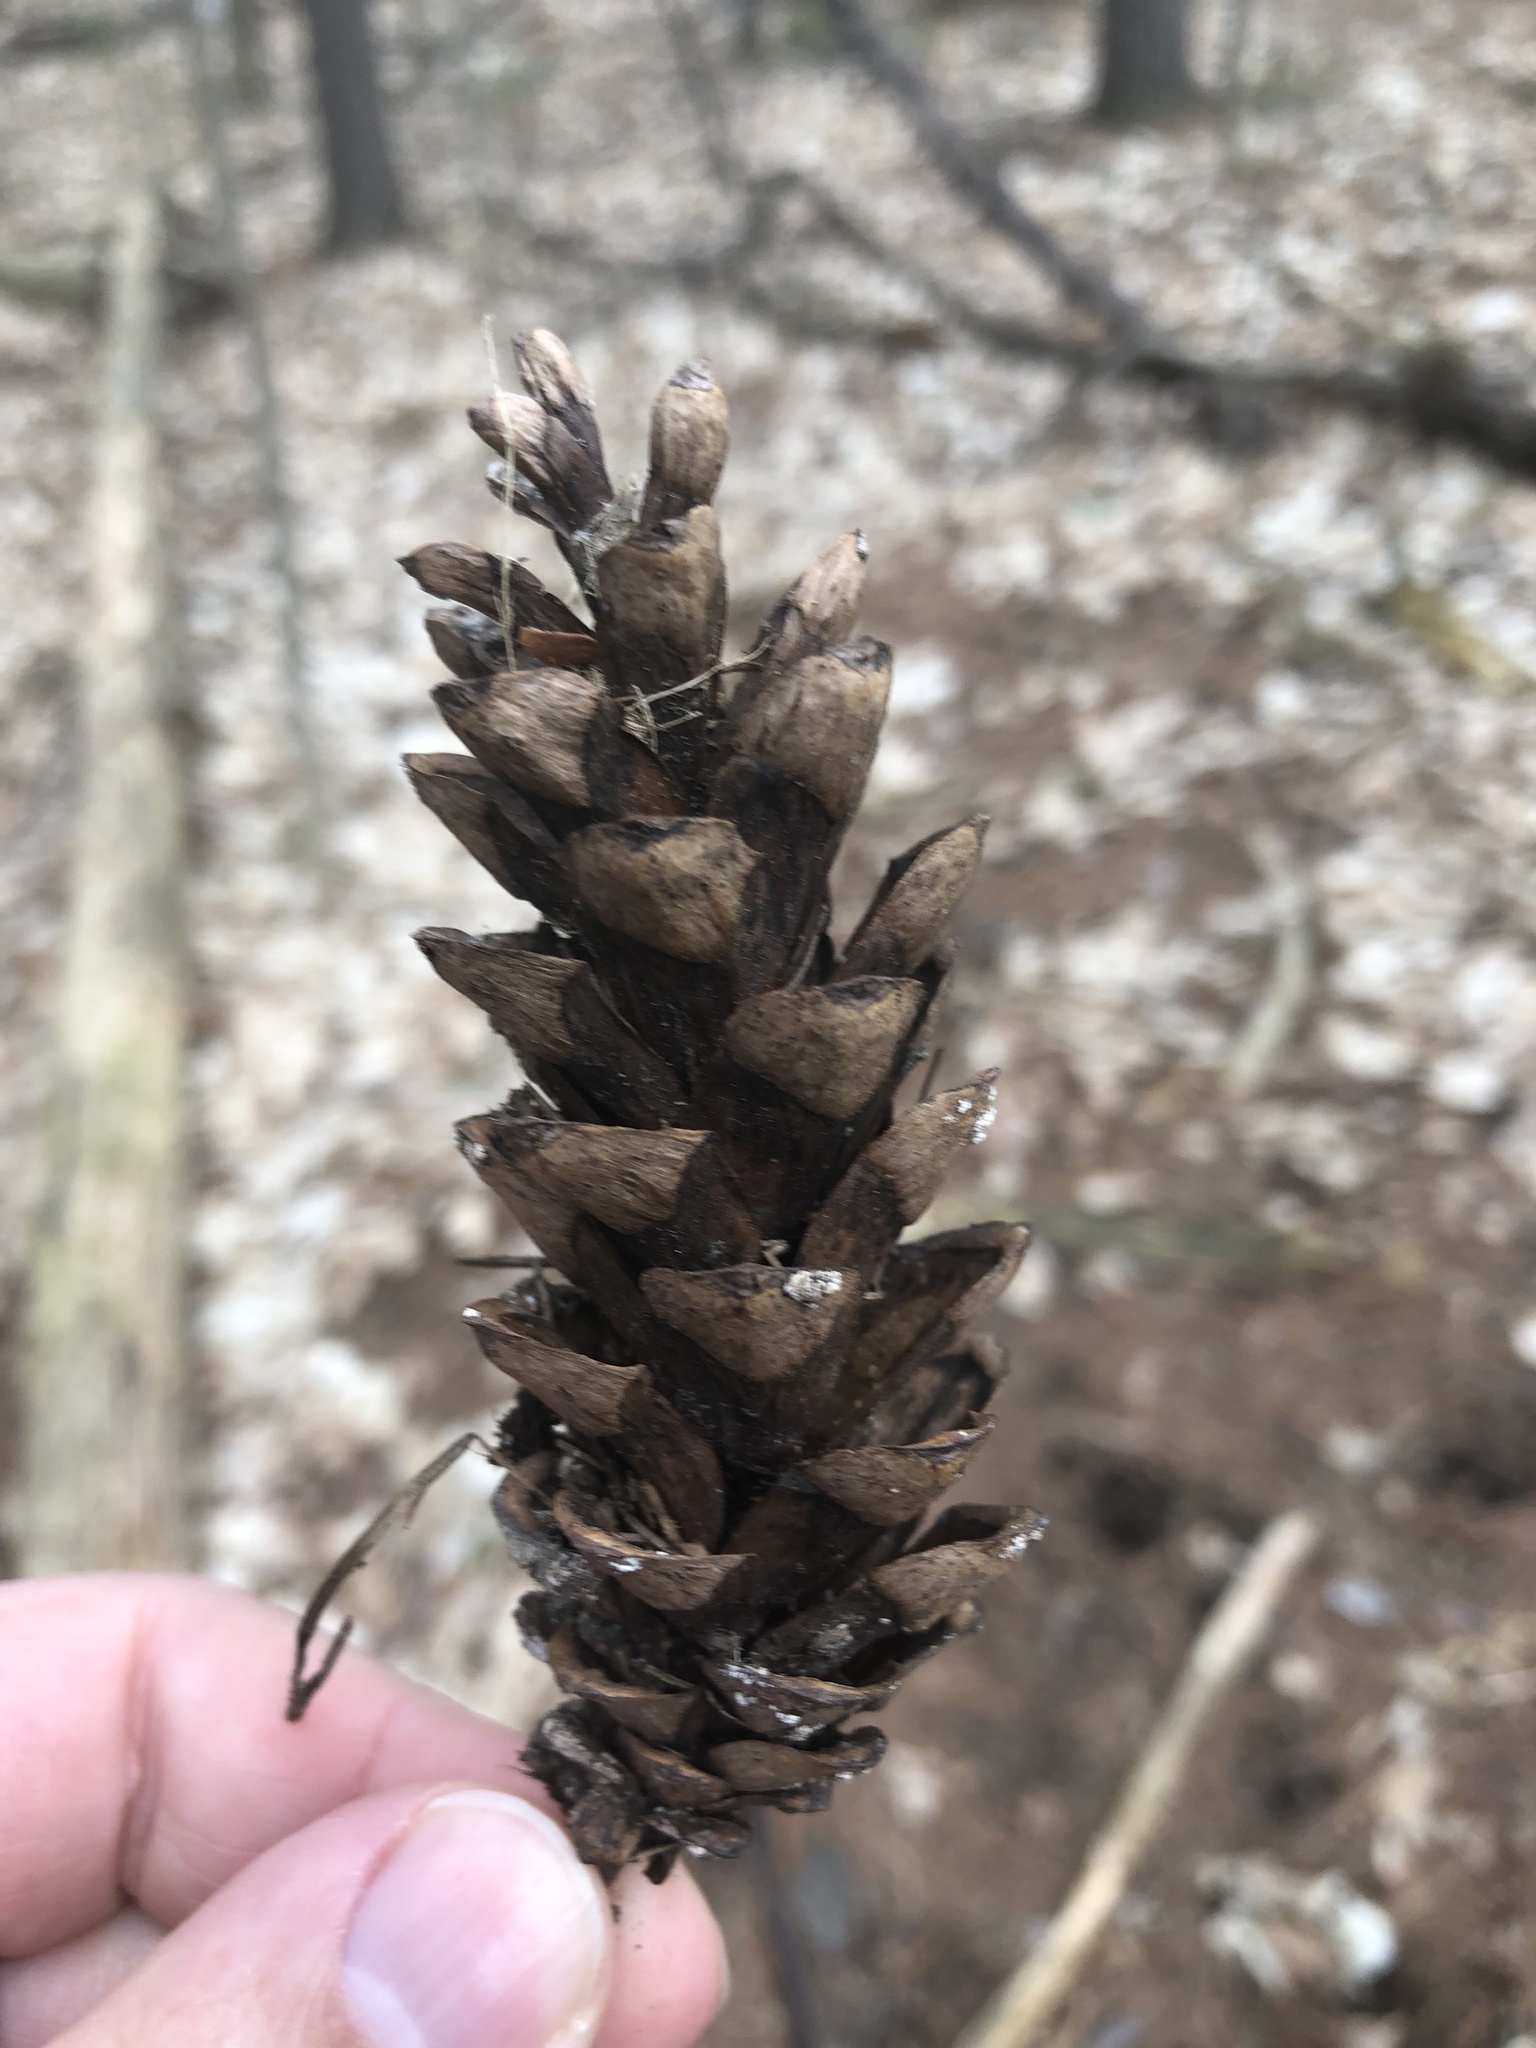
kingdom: Plantae
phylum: Tracheophyta
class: Pinopsida
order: Pinales
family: Pinaceae
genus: Pinus
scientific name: Pinus strobus
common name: Weymouth pine
